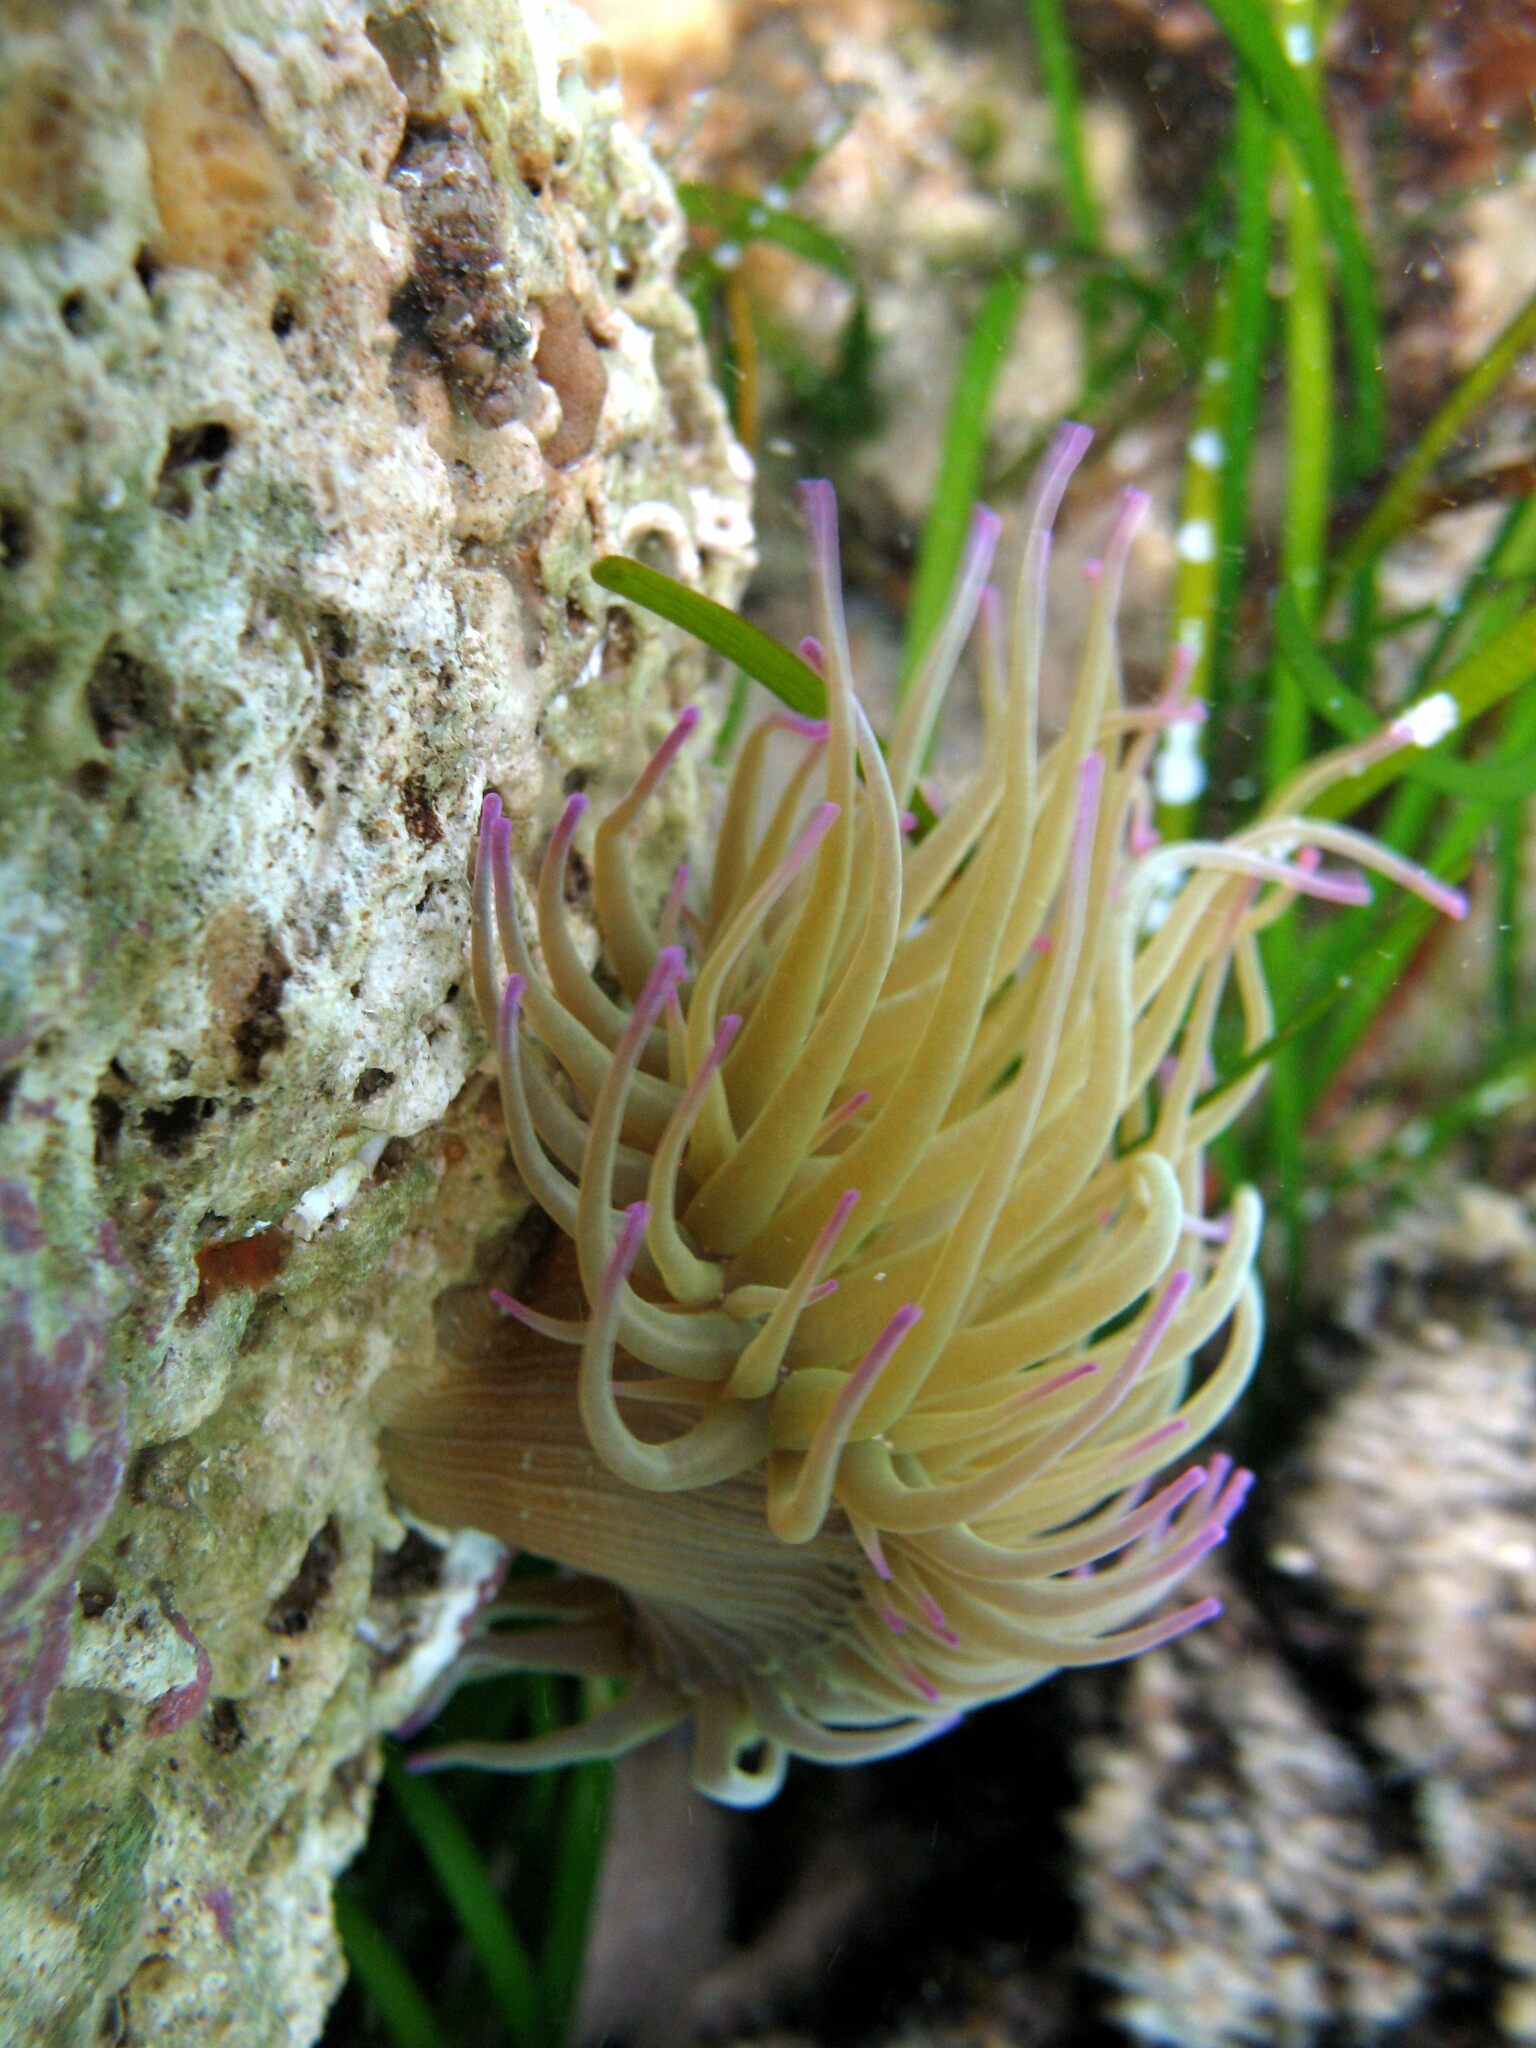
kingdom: Animalia
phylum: Cnidaria
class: Anthozoa
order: Actiniaria
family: Actiniidae
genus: Anemonia
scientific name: Anemonia viridis
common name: Snakelocks anemone
